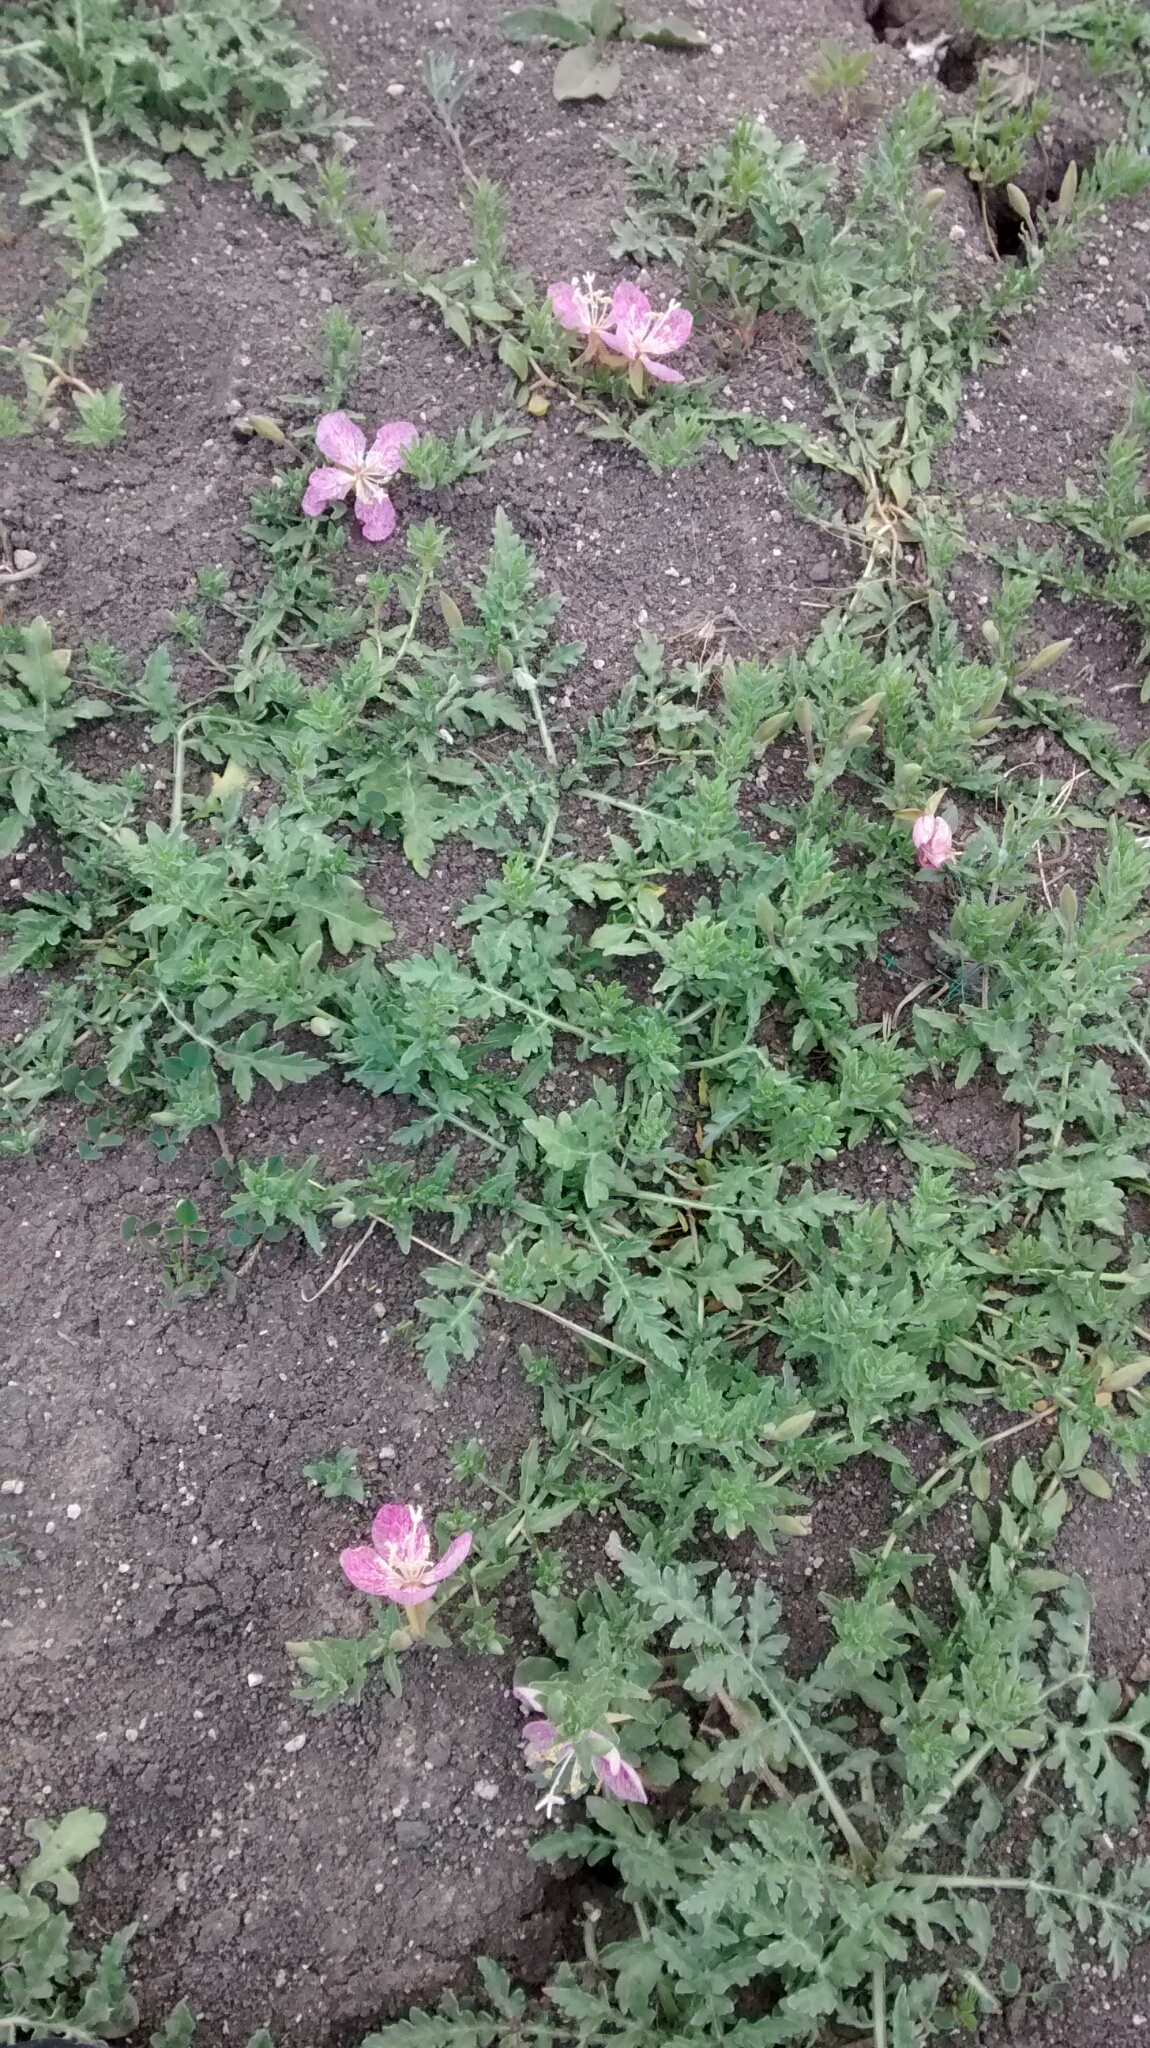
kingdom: Plantae
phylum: Tracheophyta
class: Magnoliopsida
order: Myrtales
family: Onagraceae
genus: Oenothera
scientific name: Oenothera canescens
